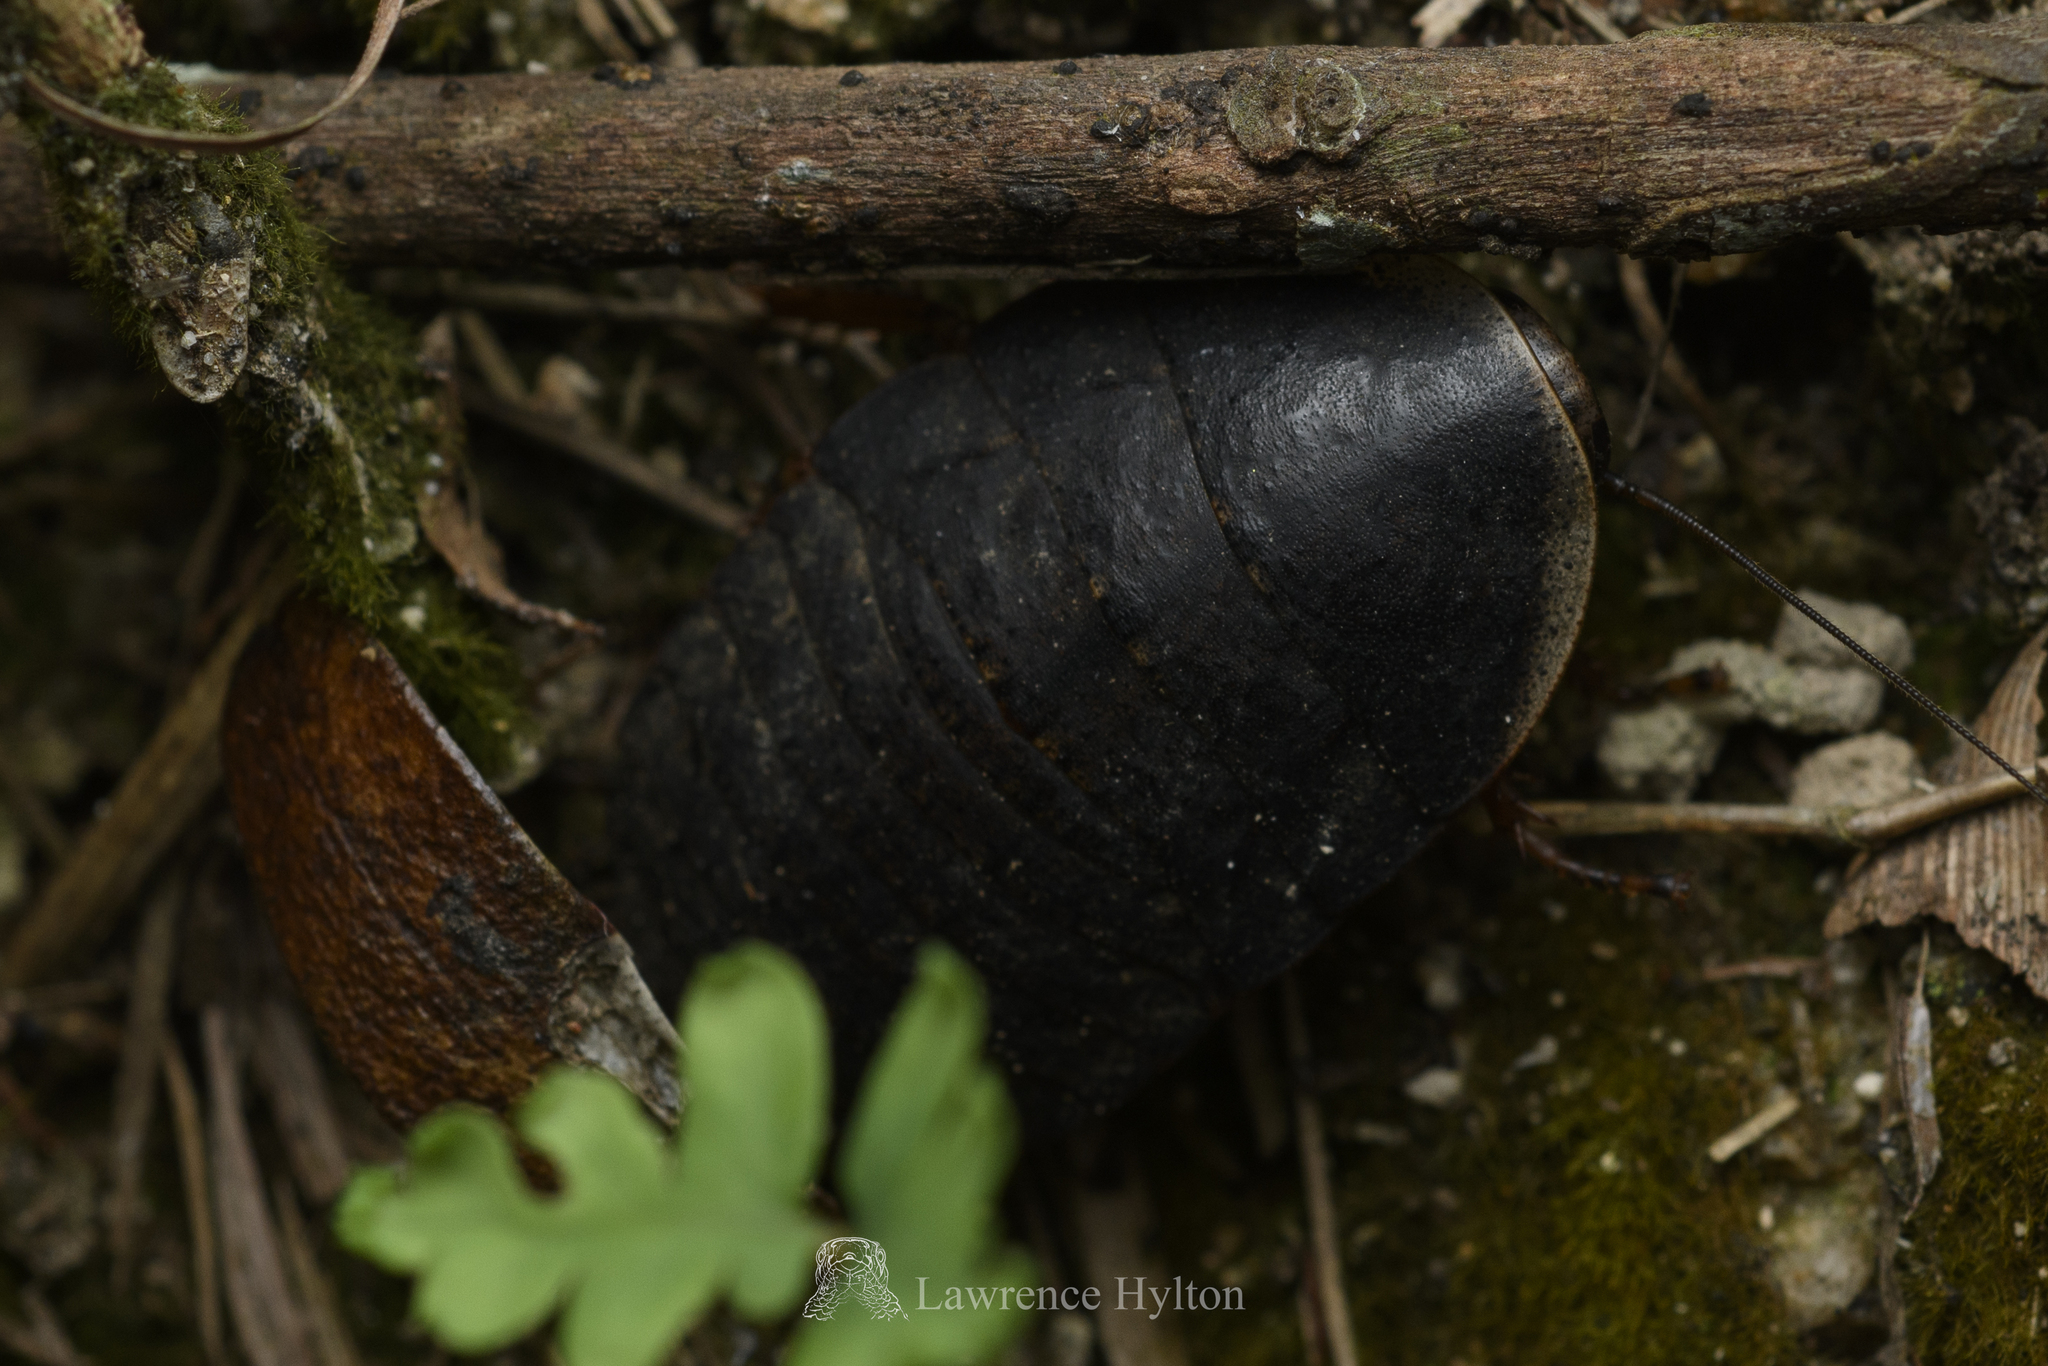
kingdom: Animalia
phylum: Arthropoda
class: Insecta
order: Blattodea
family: Blaberidae
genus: Opisthoplatia
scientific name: Opisthoplatia orientalis
